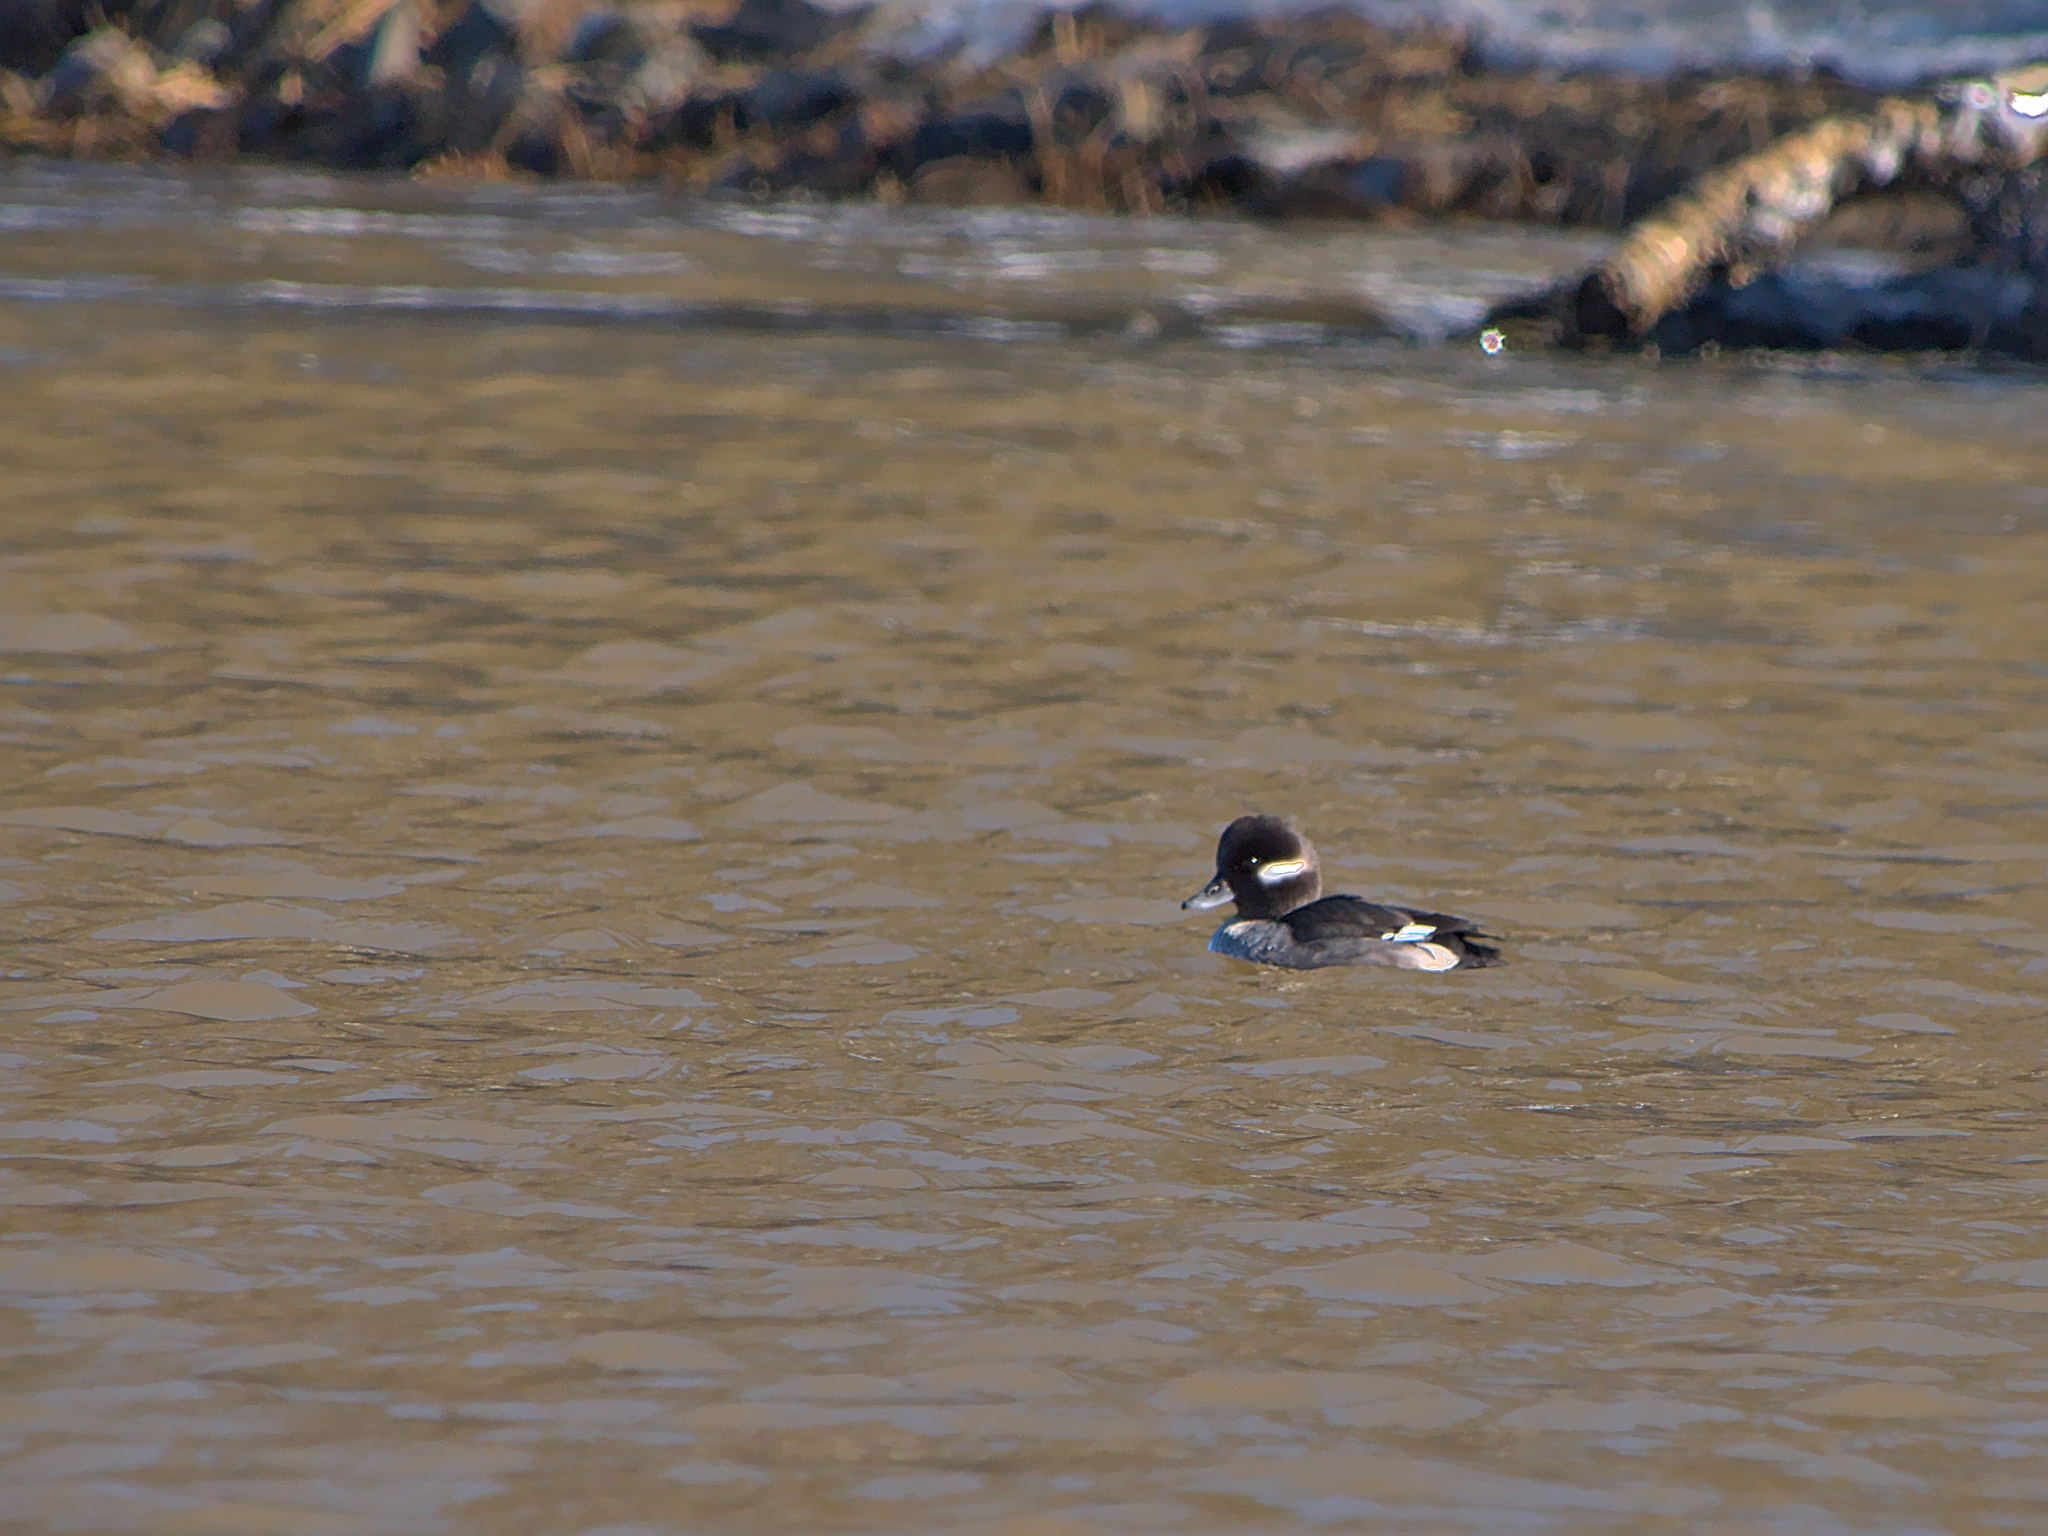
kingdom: Animalia
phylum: Chordata
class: Aves
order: Anseriformes
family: Anatidae
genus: Bucephala
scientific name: Bucephala albeola
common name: Bufflehead
